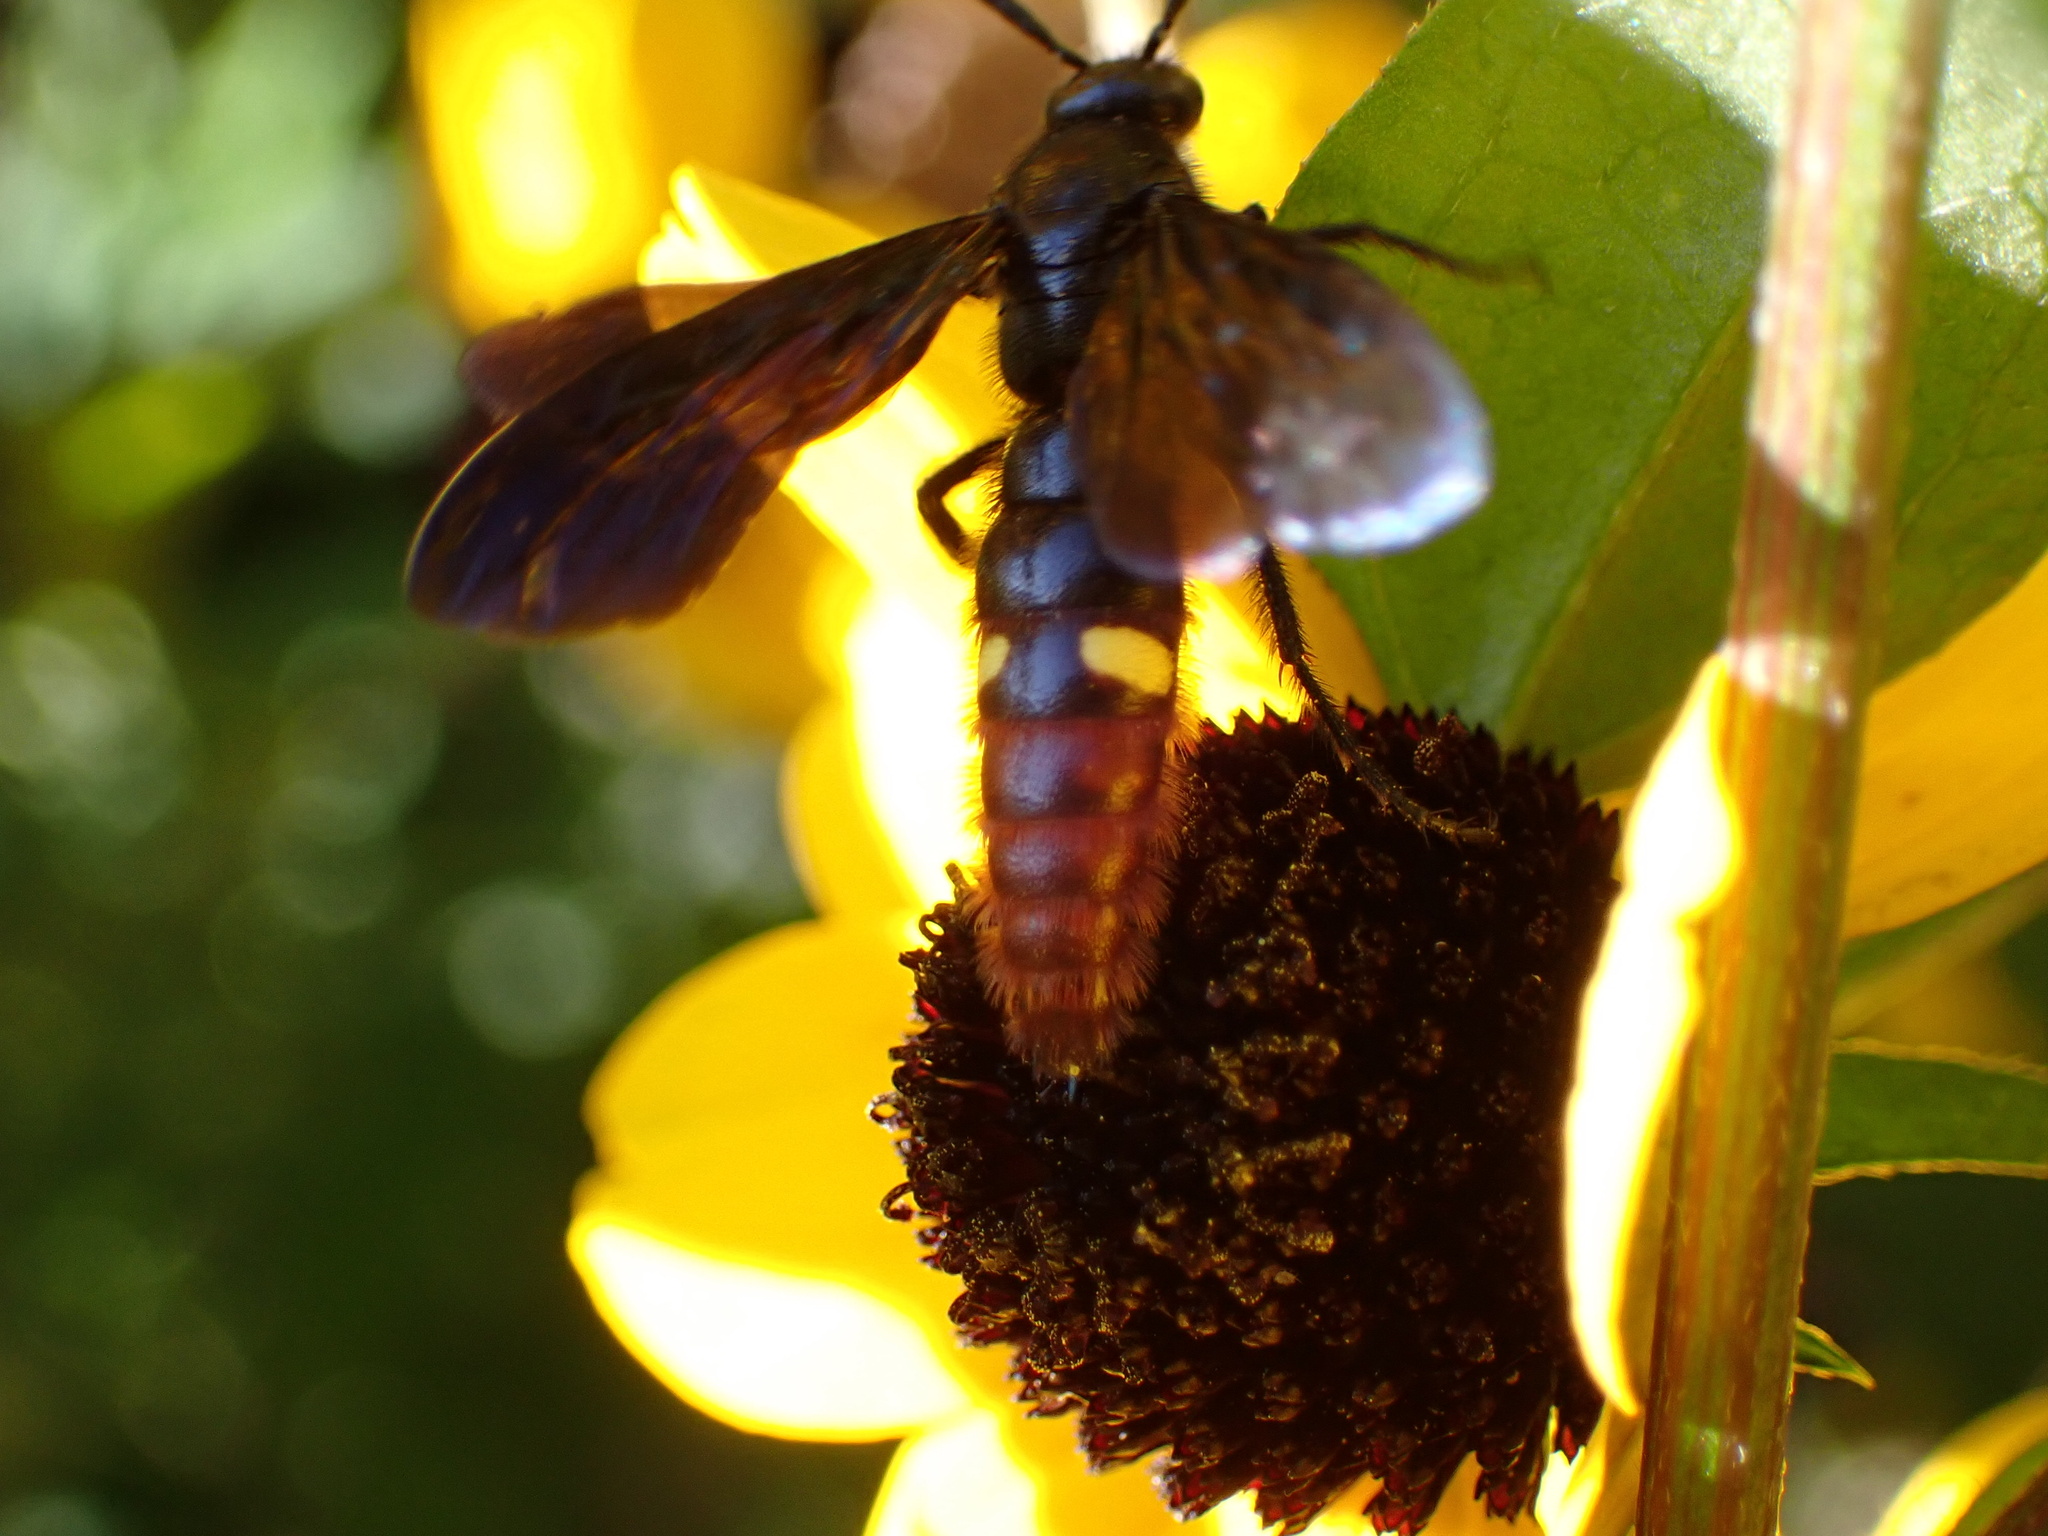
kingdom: Animalia
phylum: Arthropoda
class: Insecta
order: Hymenoptera
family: Scoliidae
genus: Scolia
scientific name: Scolia dubia
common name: Blue-winged scoliid wasp
